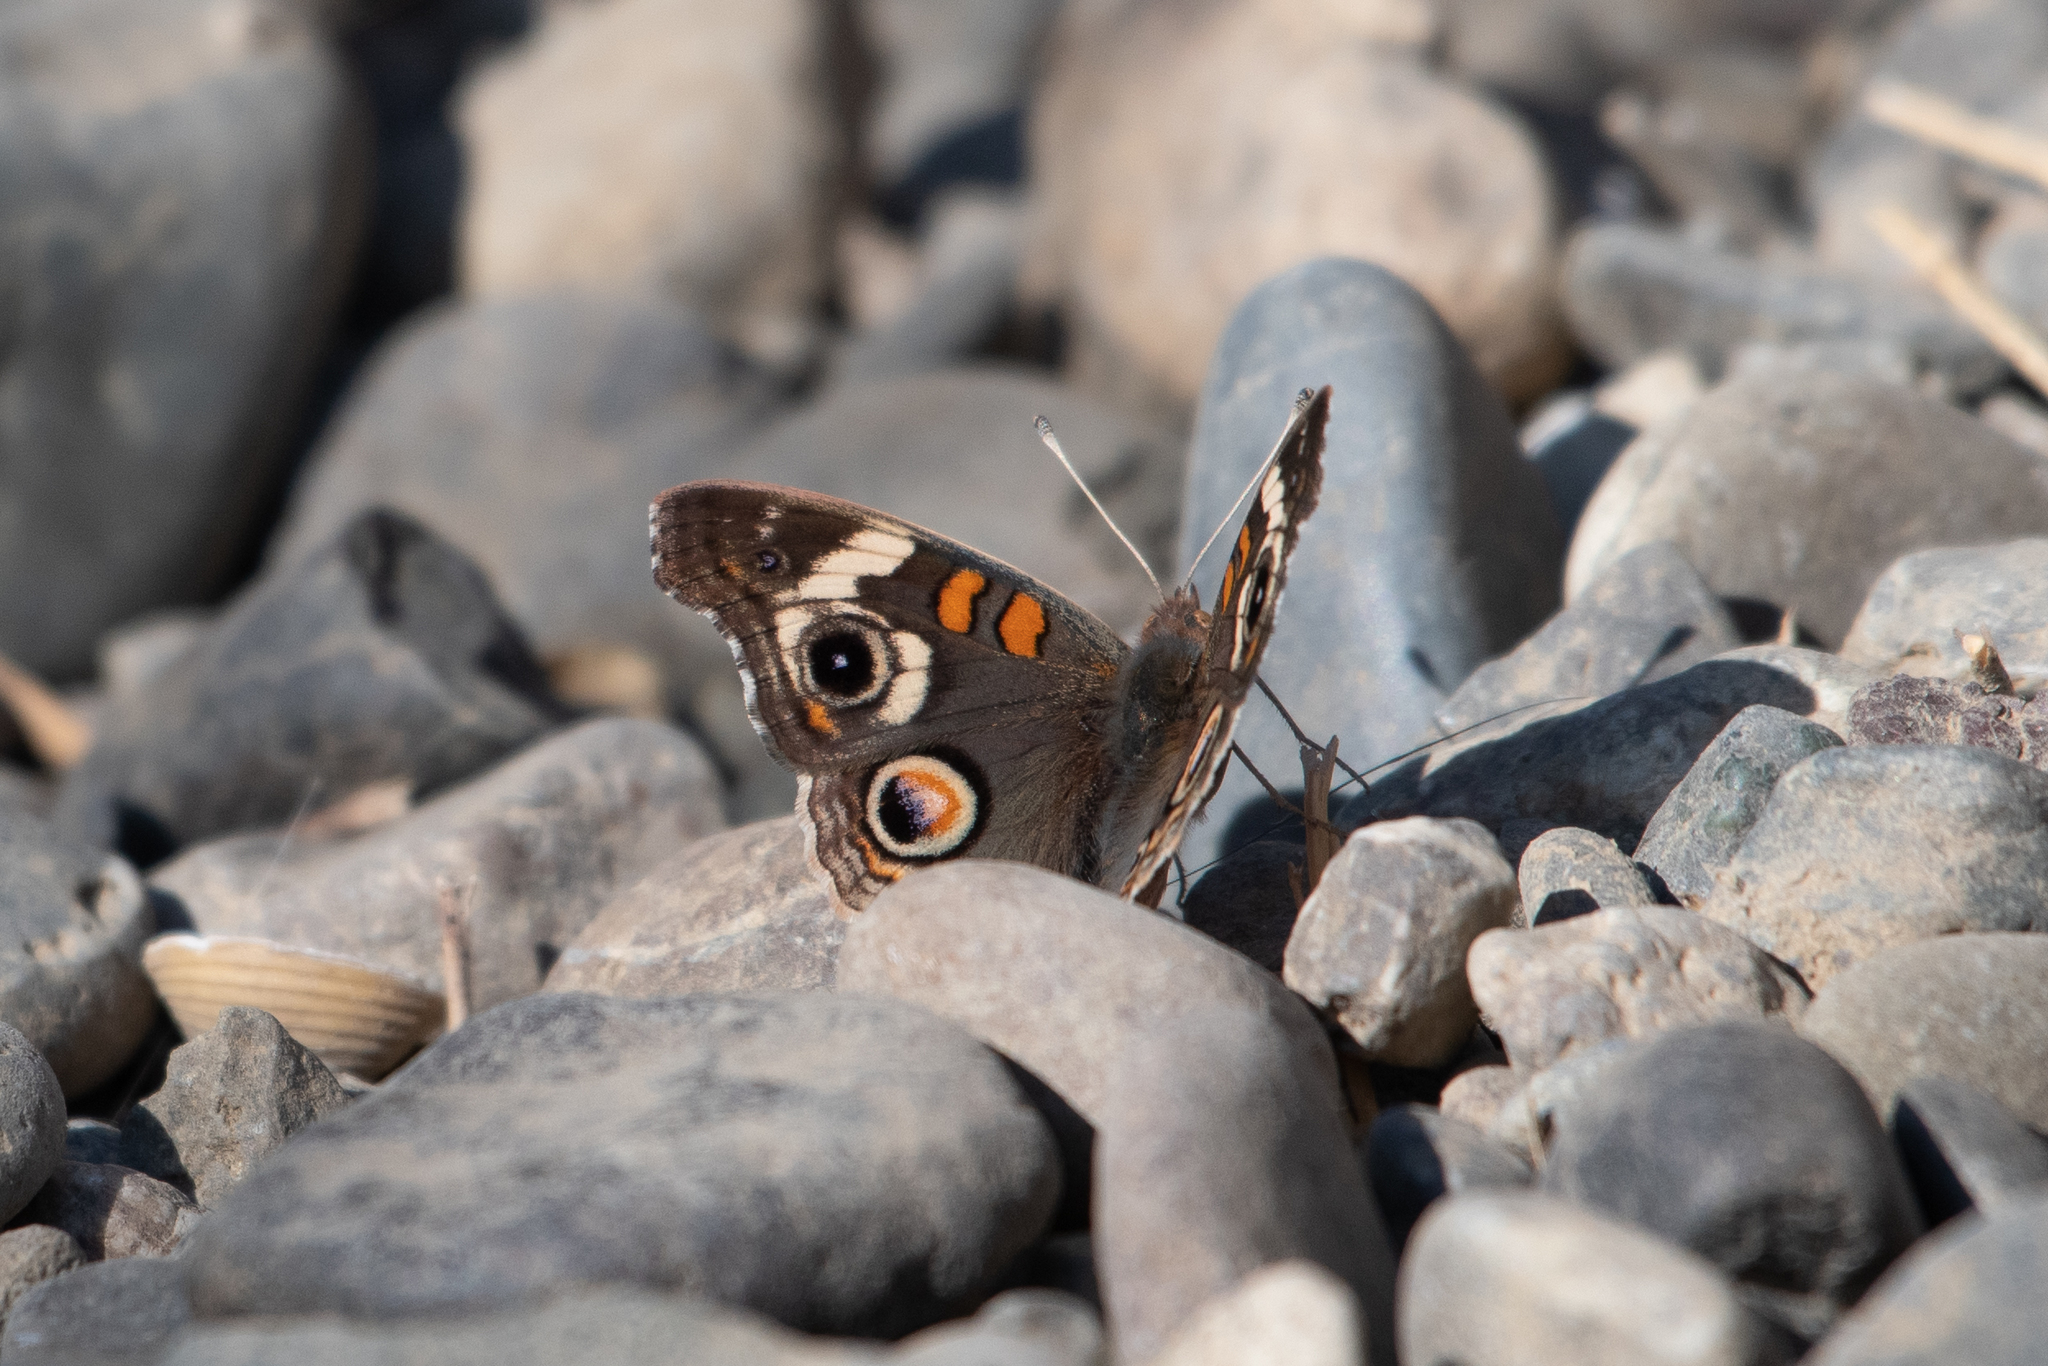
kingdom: Animalia
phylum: Arthropoda
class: Insecta
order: Lepidoptera
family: Nymphalidae
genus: Junonia
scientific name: Junonia grisea
